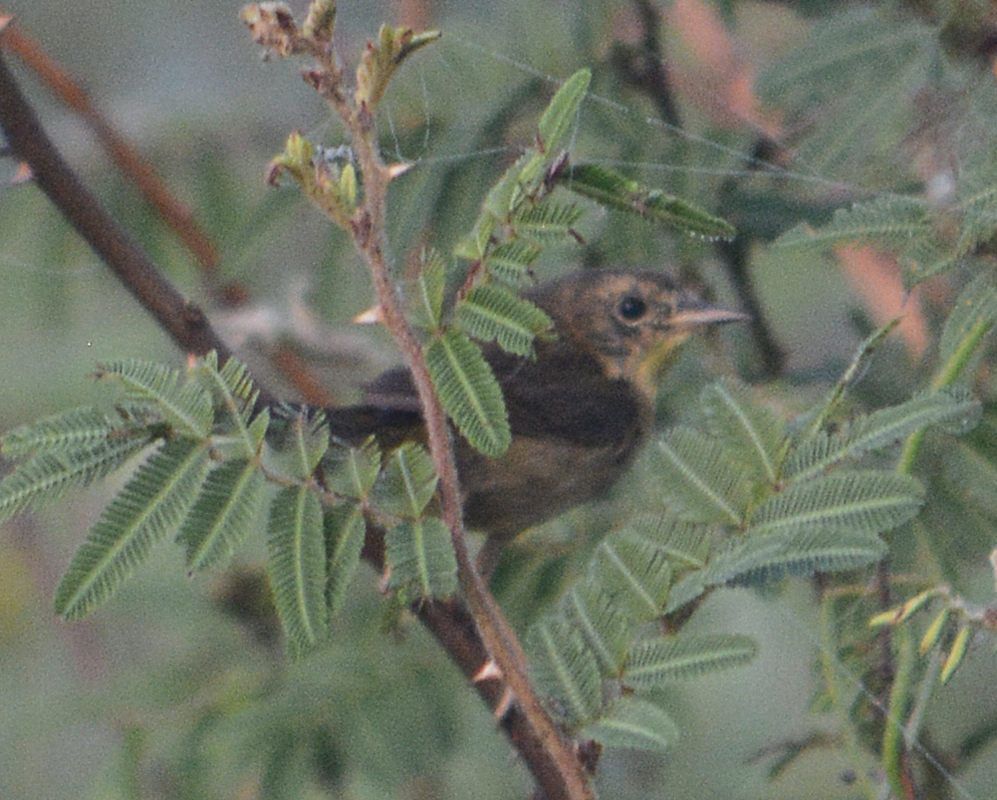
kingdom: Animalia
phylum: Chordata
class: Aves
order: Passeriformes
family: Parulidae
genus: Geothlypis
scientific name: Geothlypis trichas
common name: Common yellowthroat
